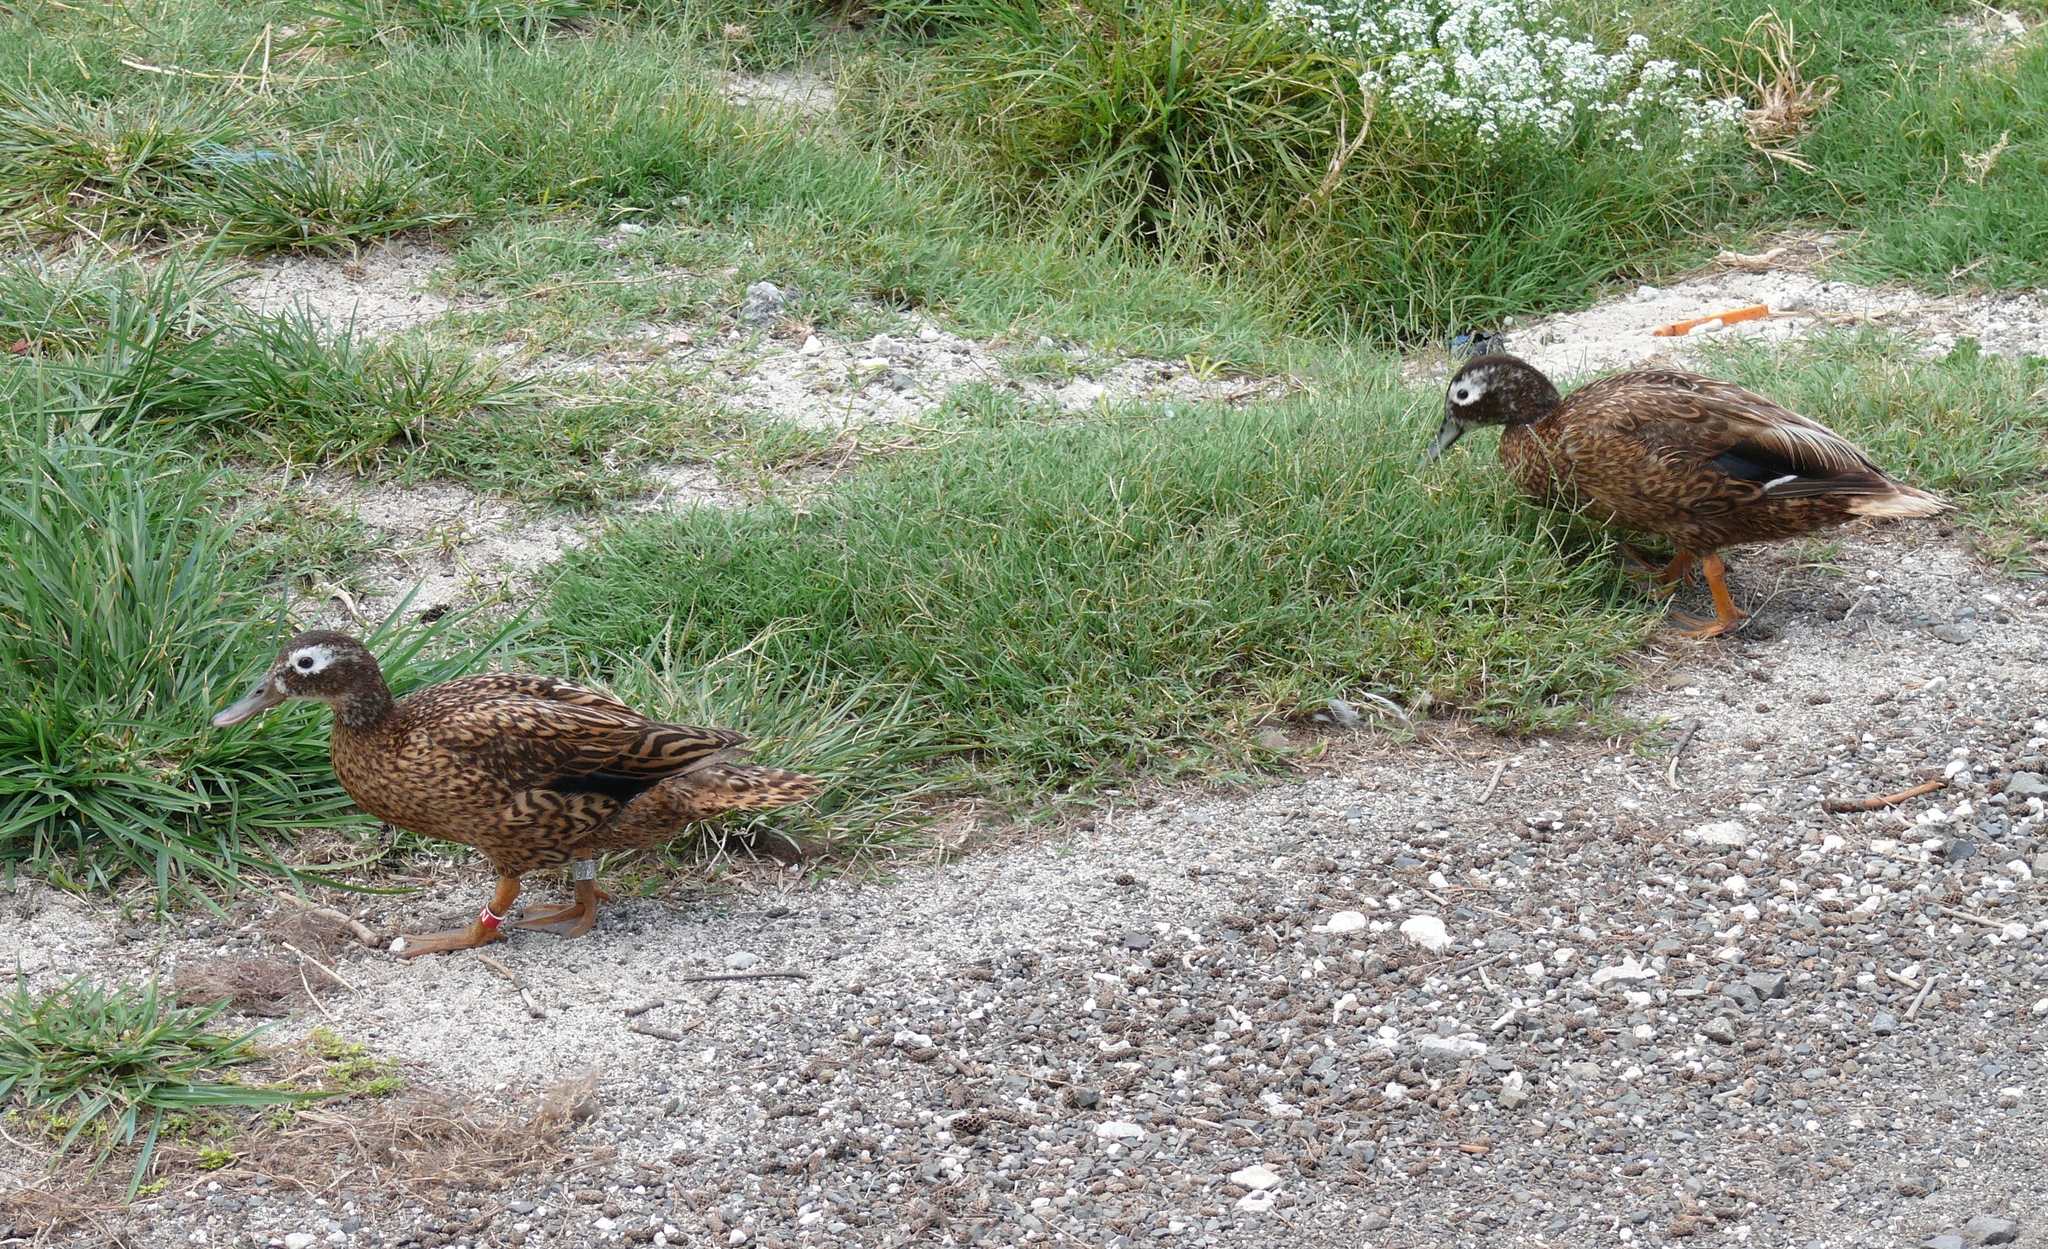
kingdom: Animalia
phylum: Chordata
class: Aves
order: Anseriformes
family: Anatidae
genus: Anas
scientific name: Anas laysanensis
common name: Laysan duck
